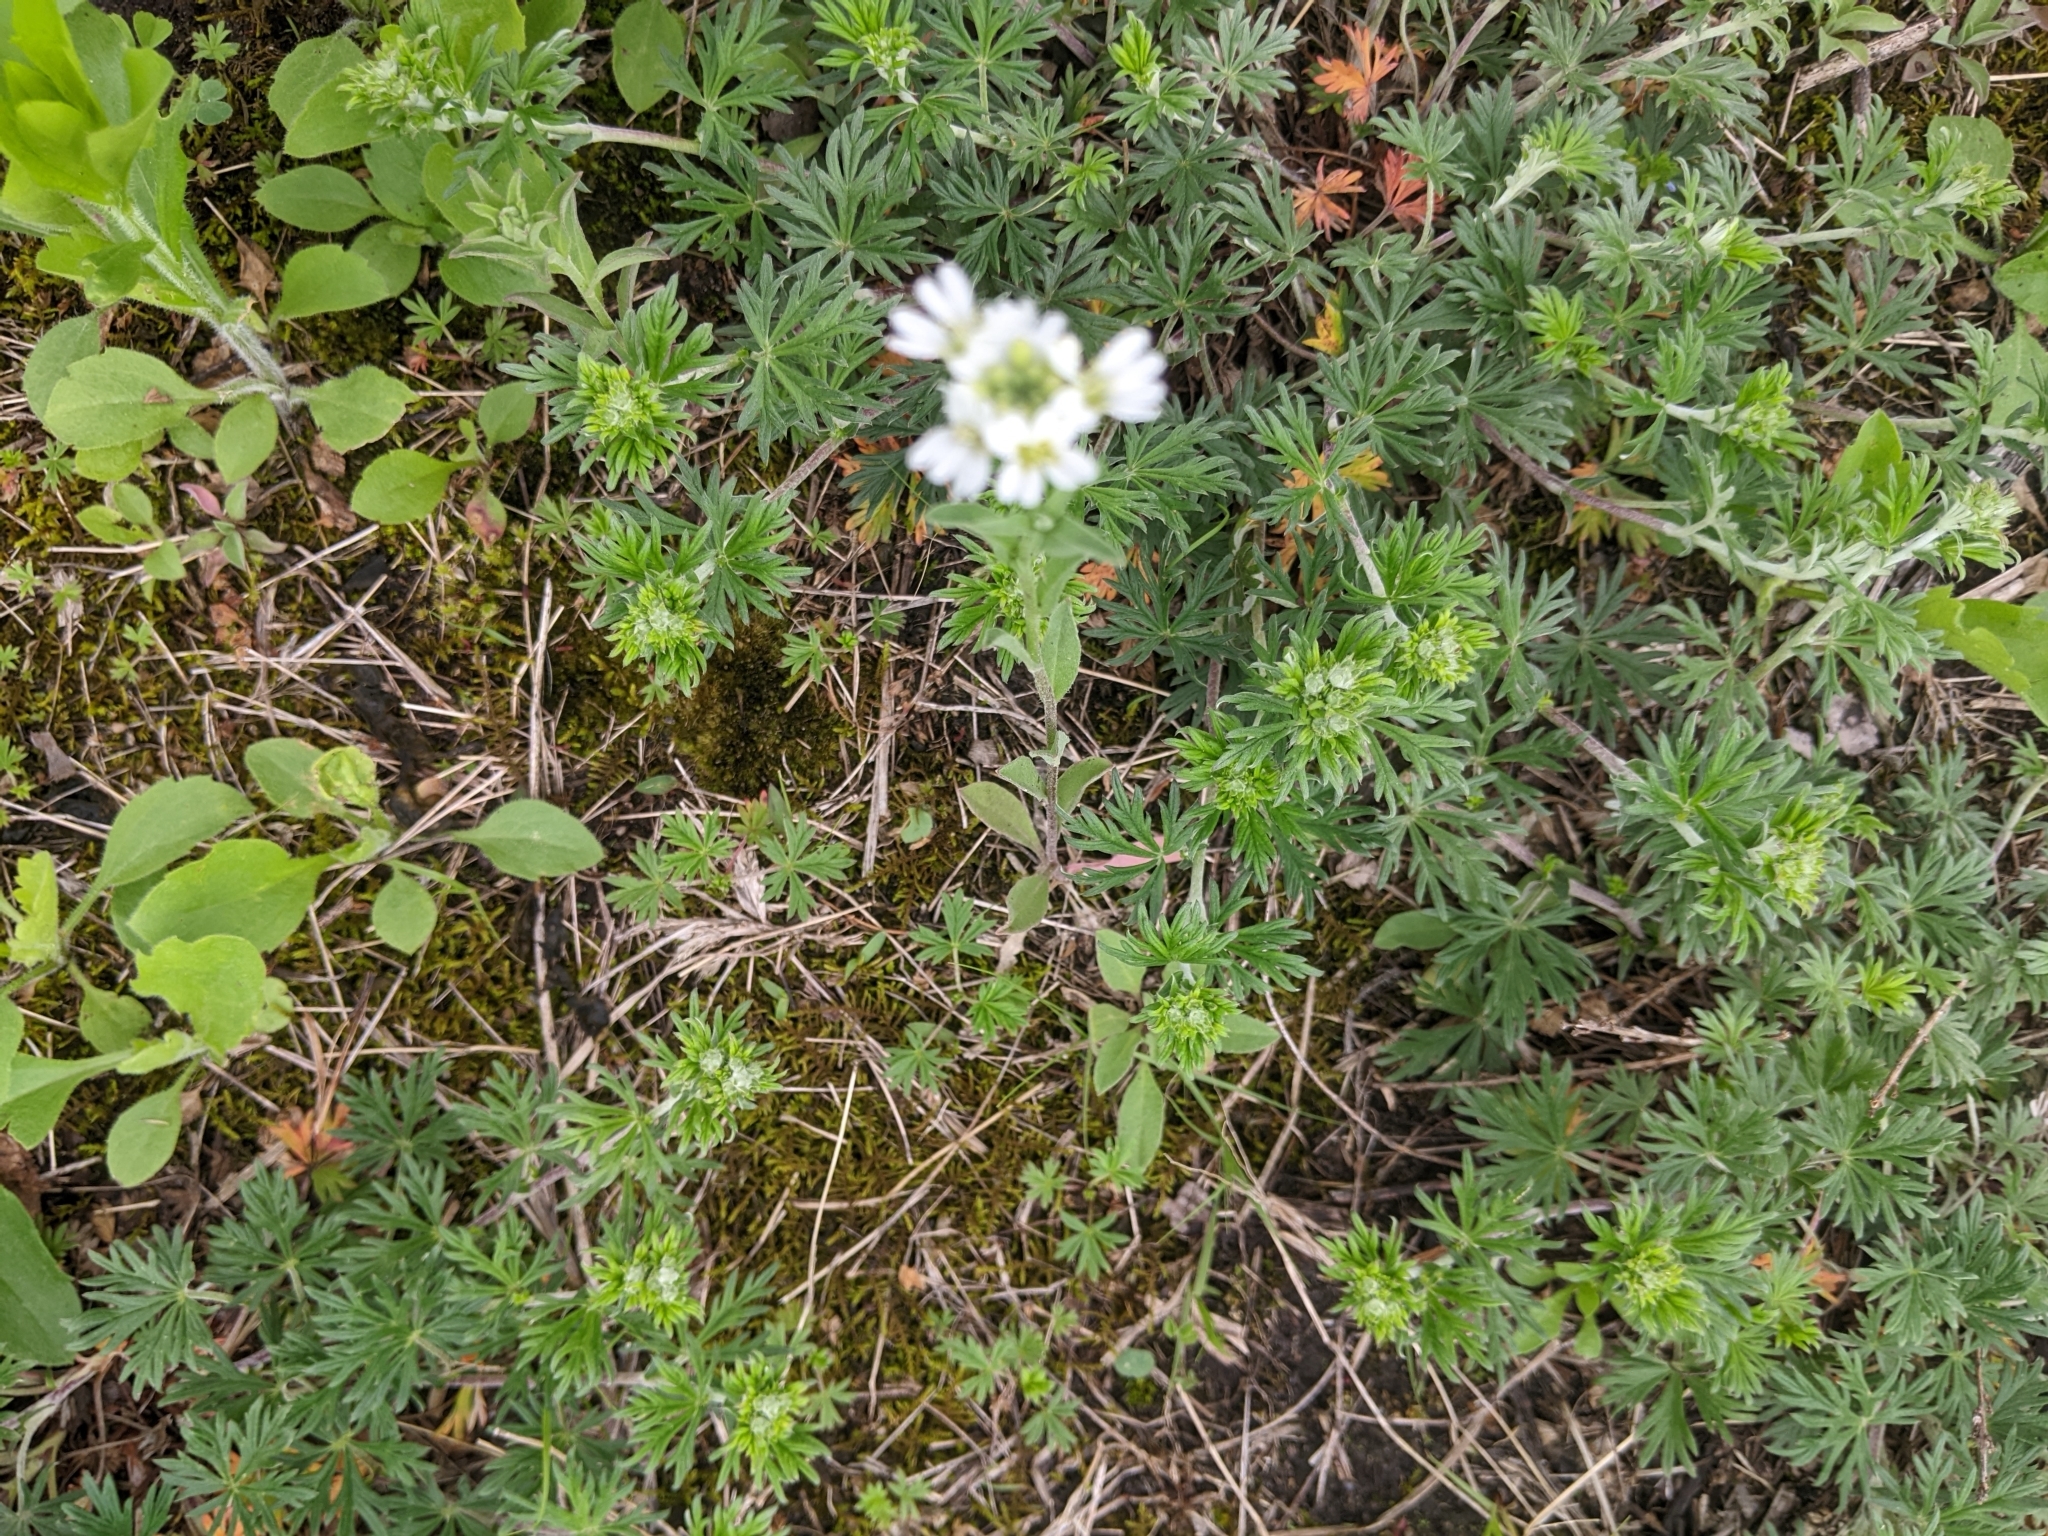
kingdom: Plantae
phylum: Tracheophyta
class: Magnoliopsida
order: Brassicales
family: Brassicaceae
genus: Berteroa
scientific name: Berteroa incana
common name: Hoary alison
